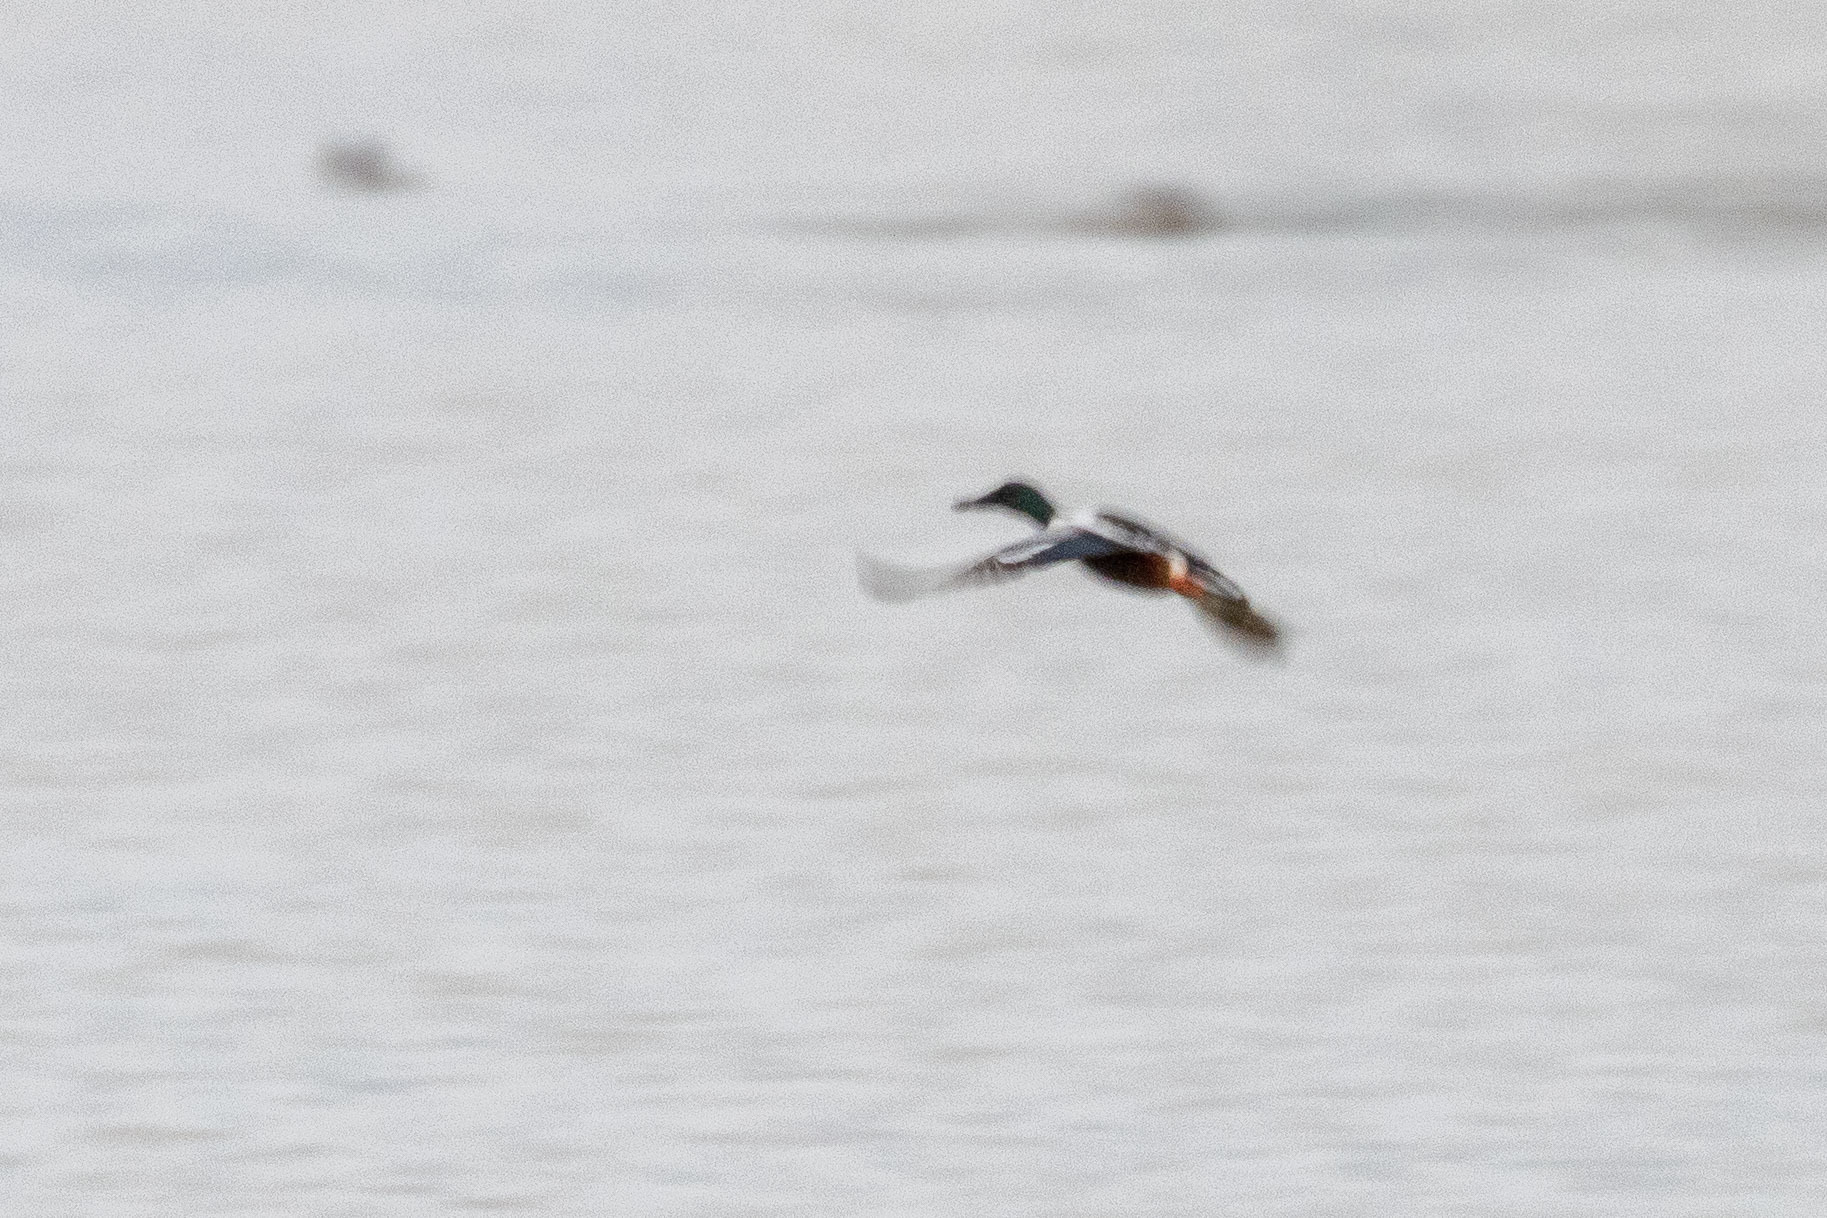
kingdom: Animalia
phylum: Chordata
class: Aves
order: Anseriformes
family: Anatidae
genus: Spatula
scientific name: Spatula clypeata
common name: Northern shoveler
